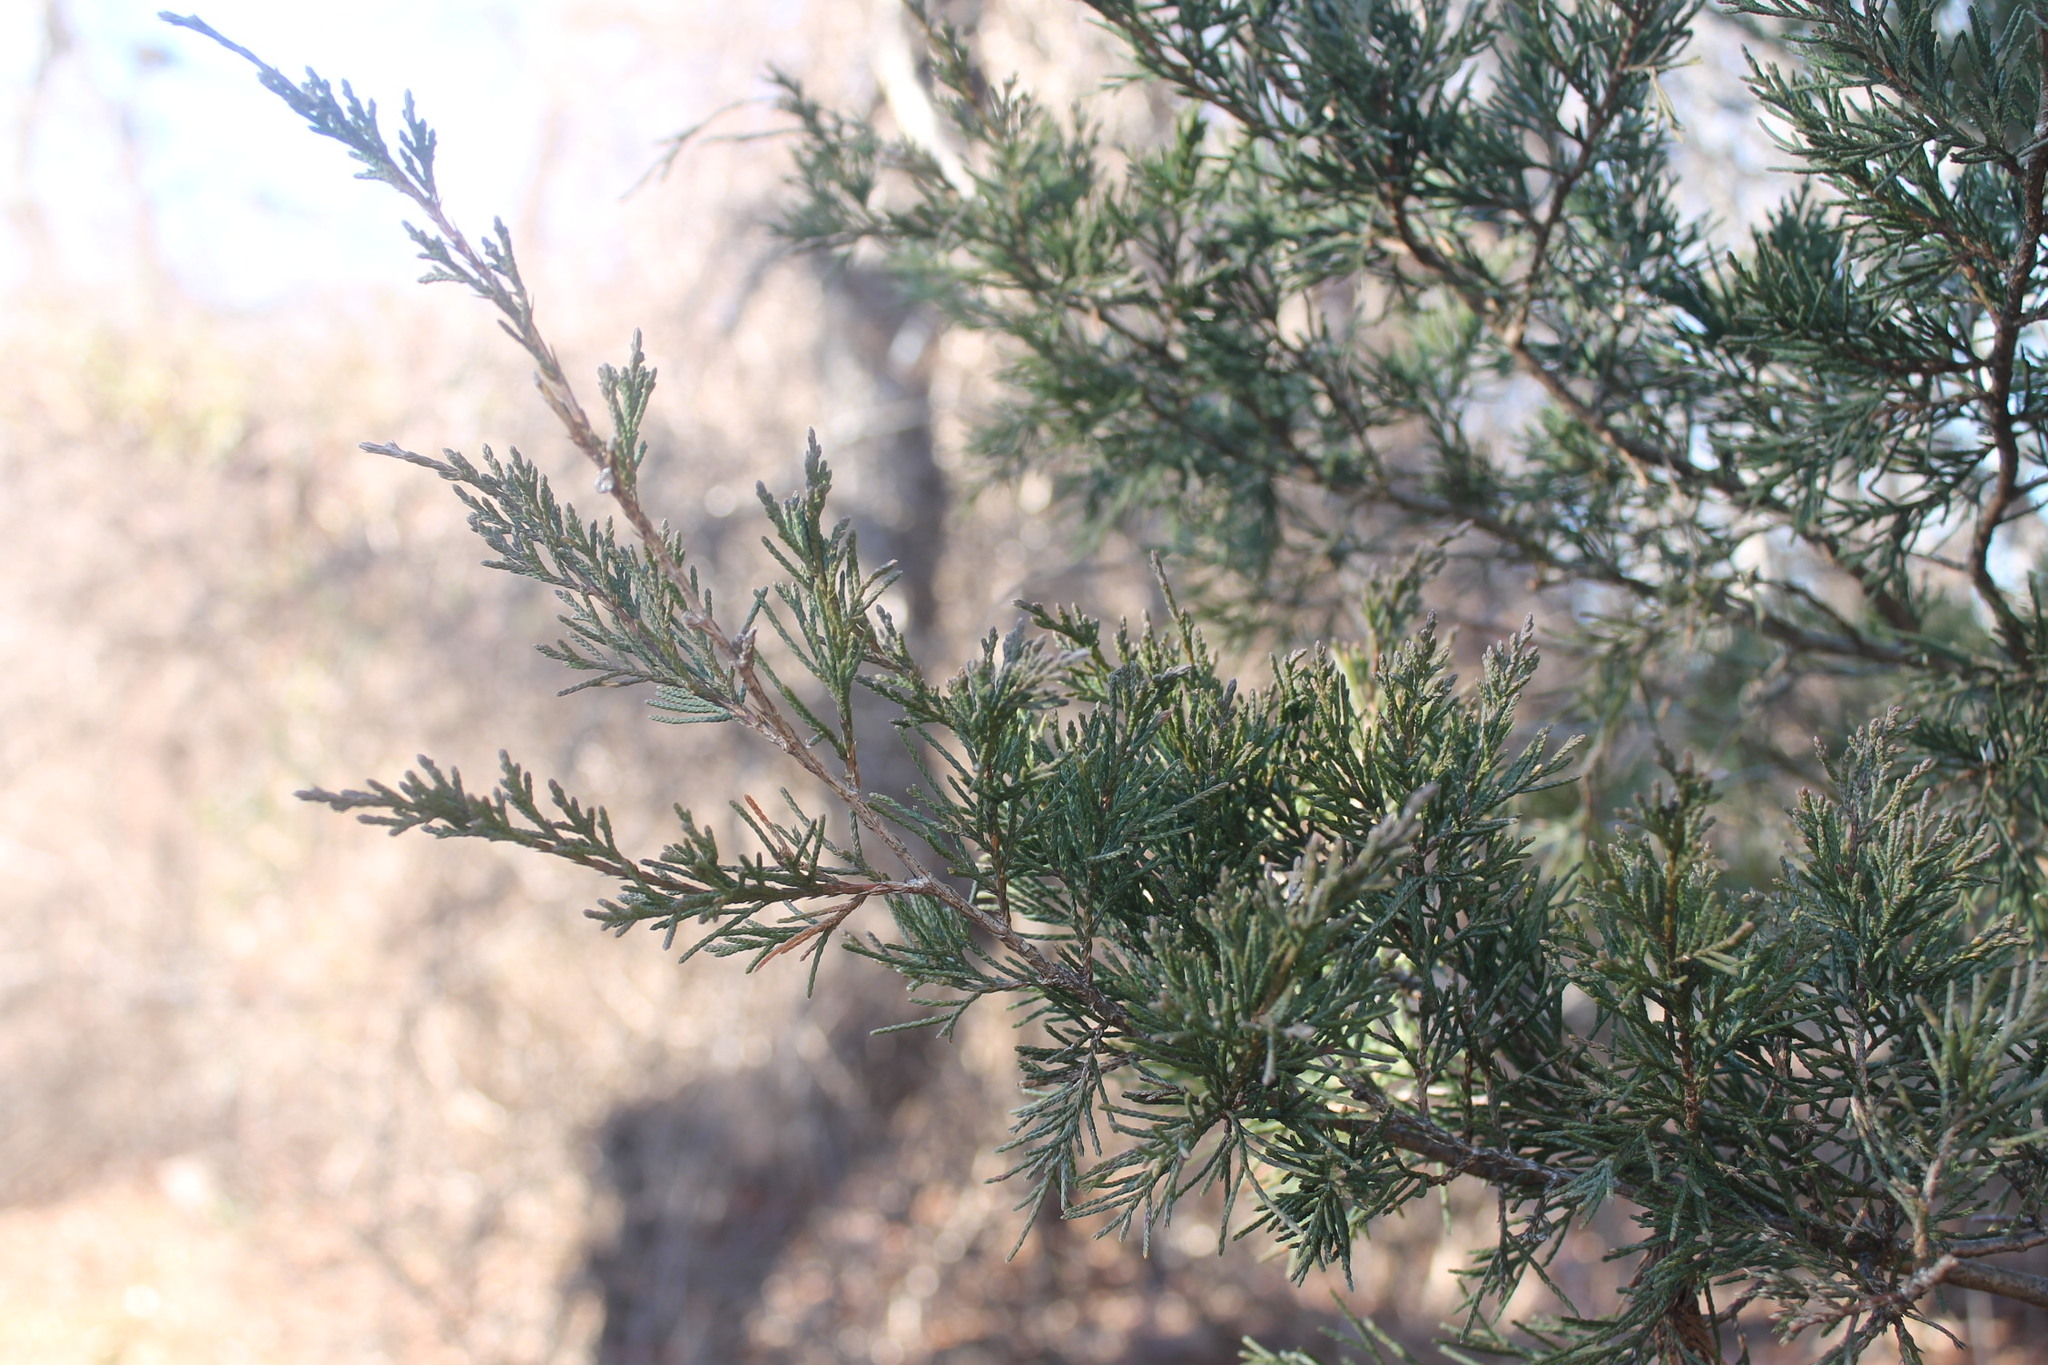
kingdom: Plantae
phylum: Tracheophyta
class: Pinopsida
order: Pinales
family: Cupressaceae
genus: Juniperus
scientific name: Juniperus virginiana
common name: Red juniper
